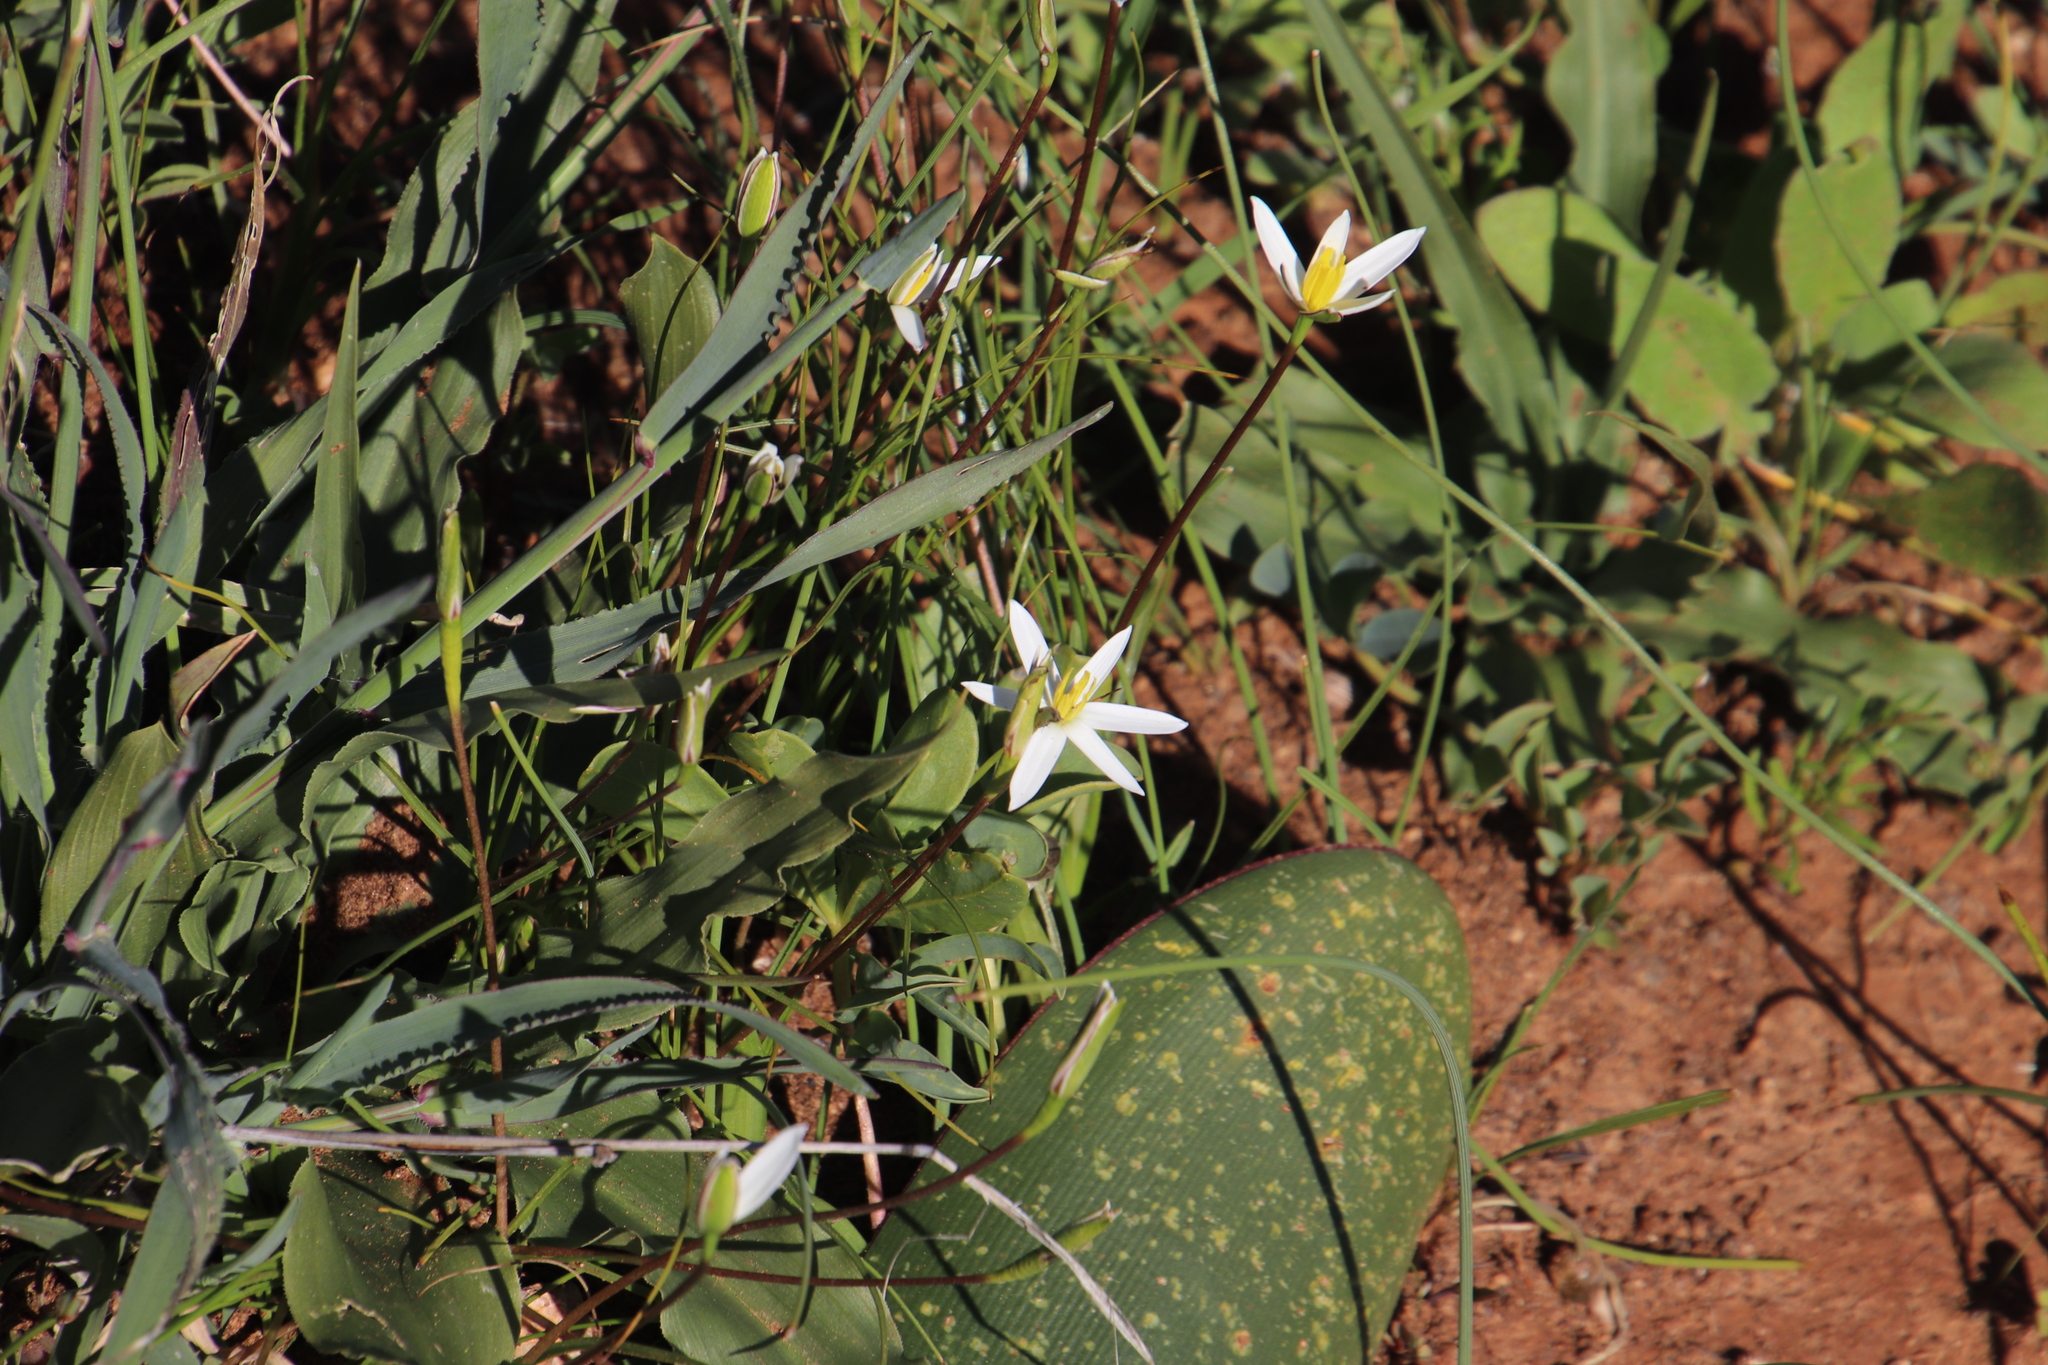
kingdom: Plantae
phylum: Tracheophyta
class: Liliopsida
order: Asparagales
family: Hypoxidaceae
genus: Pauridia
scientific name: Pauridia serrata
